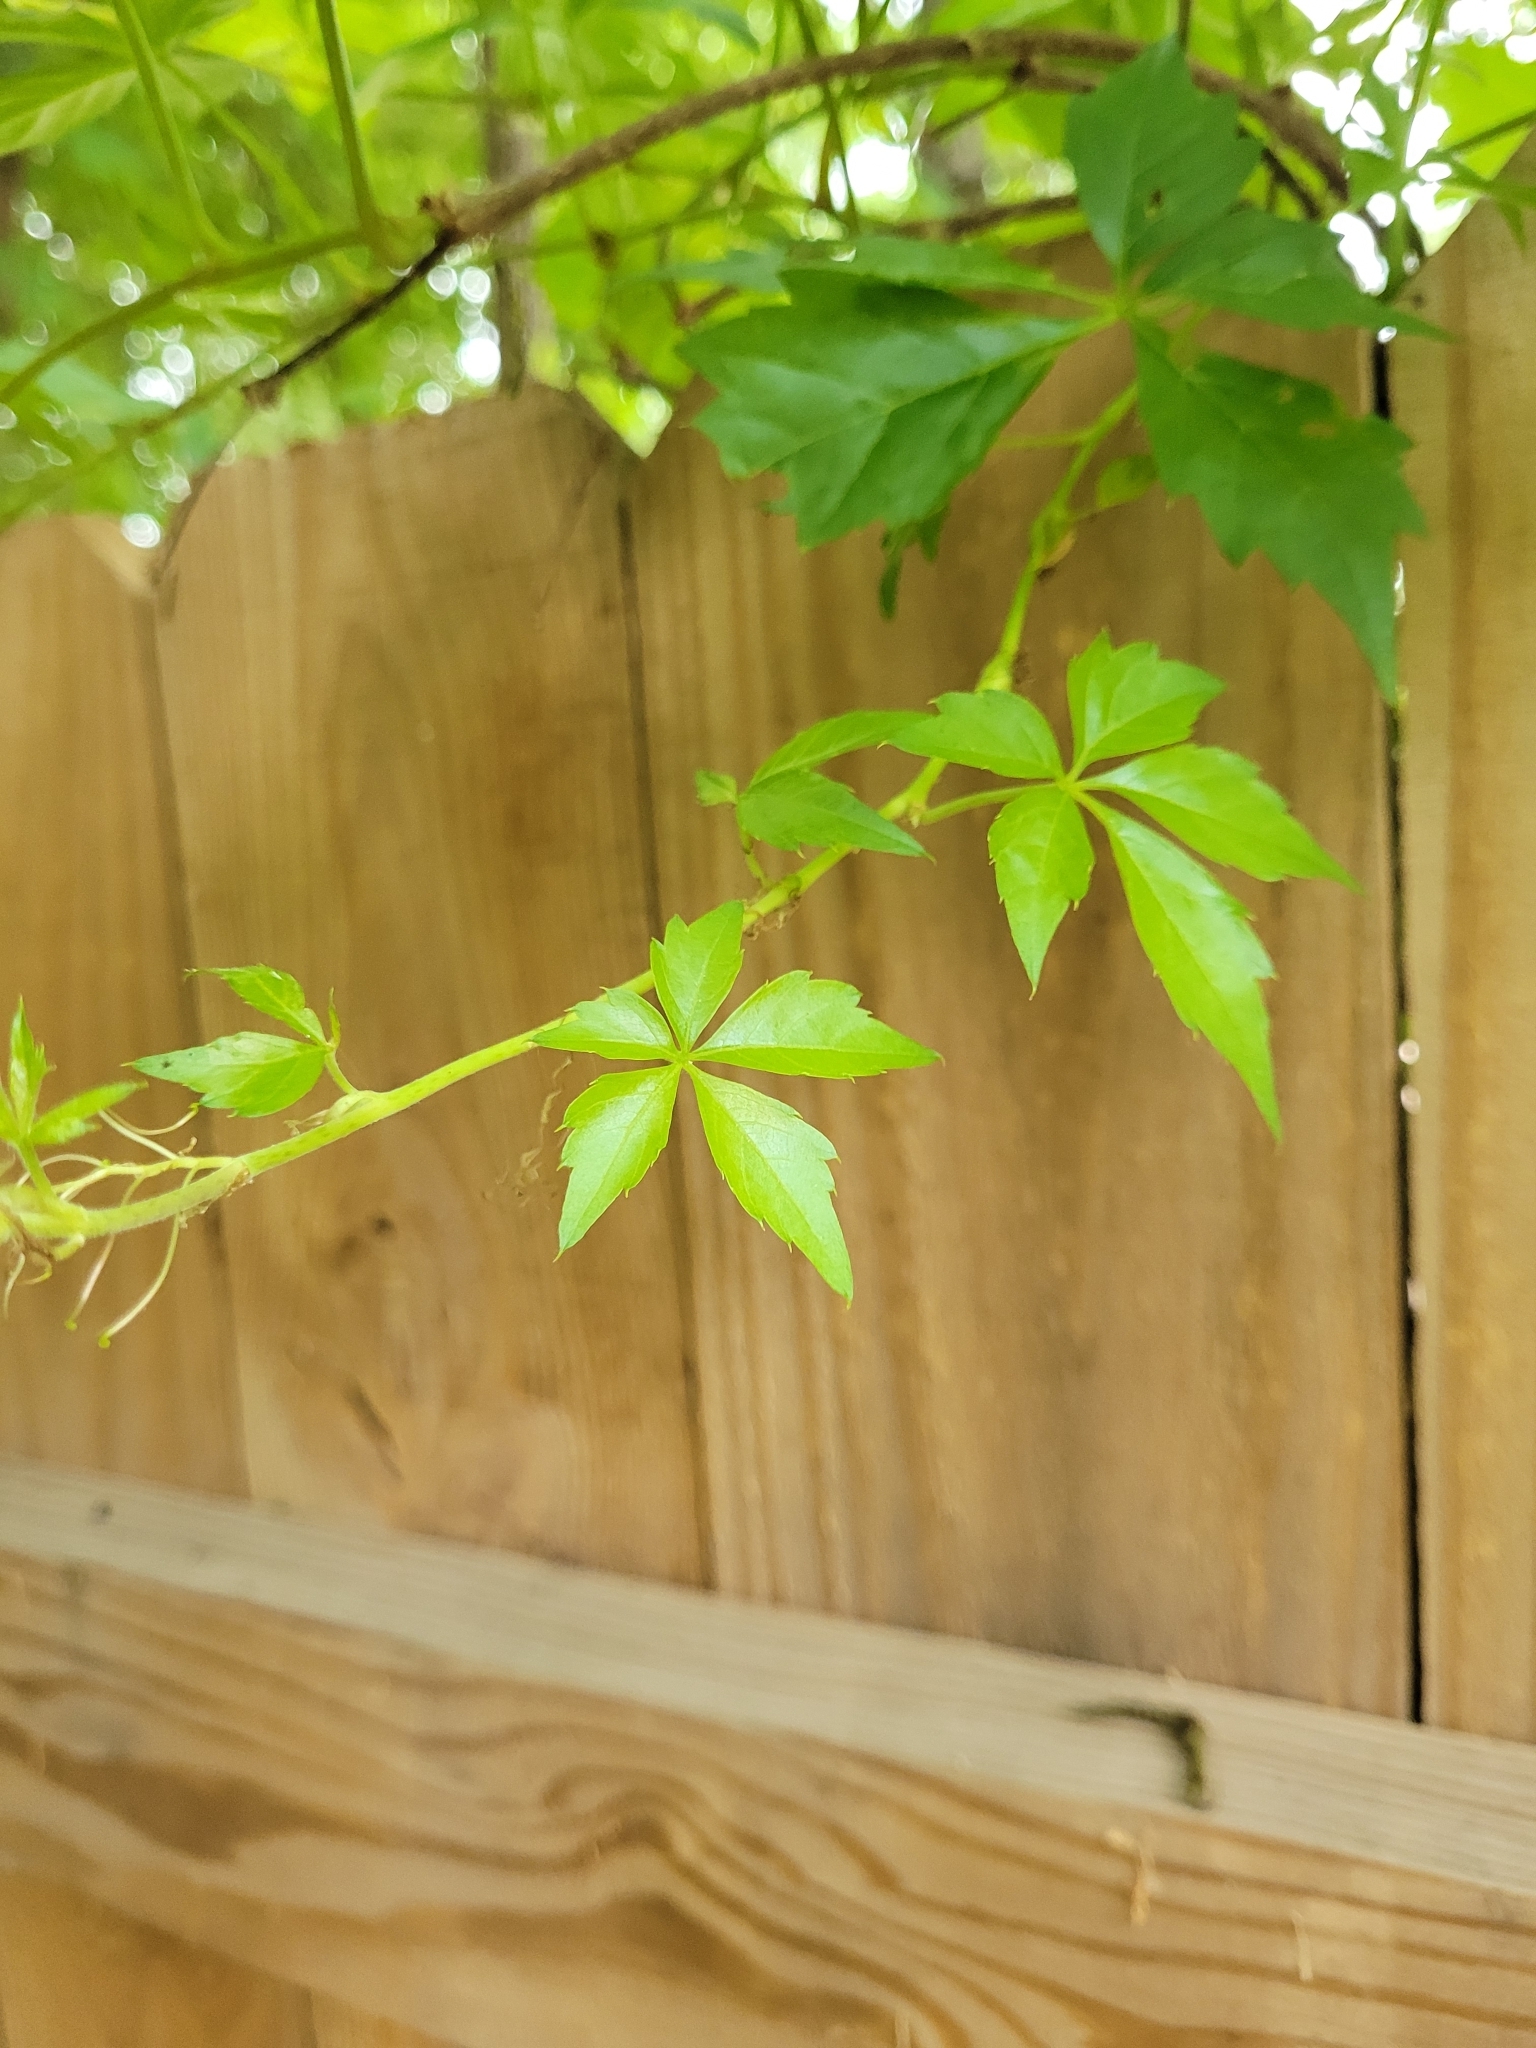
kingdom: Plantae
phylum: Tracheophyta
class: Magnoliopsida
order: Vitales
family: Vitaceae
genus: Parthenocissus
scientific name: Parthenocissus quinquefolia
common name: Virginia-creeper
